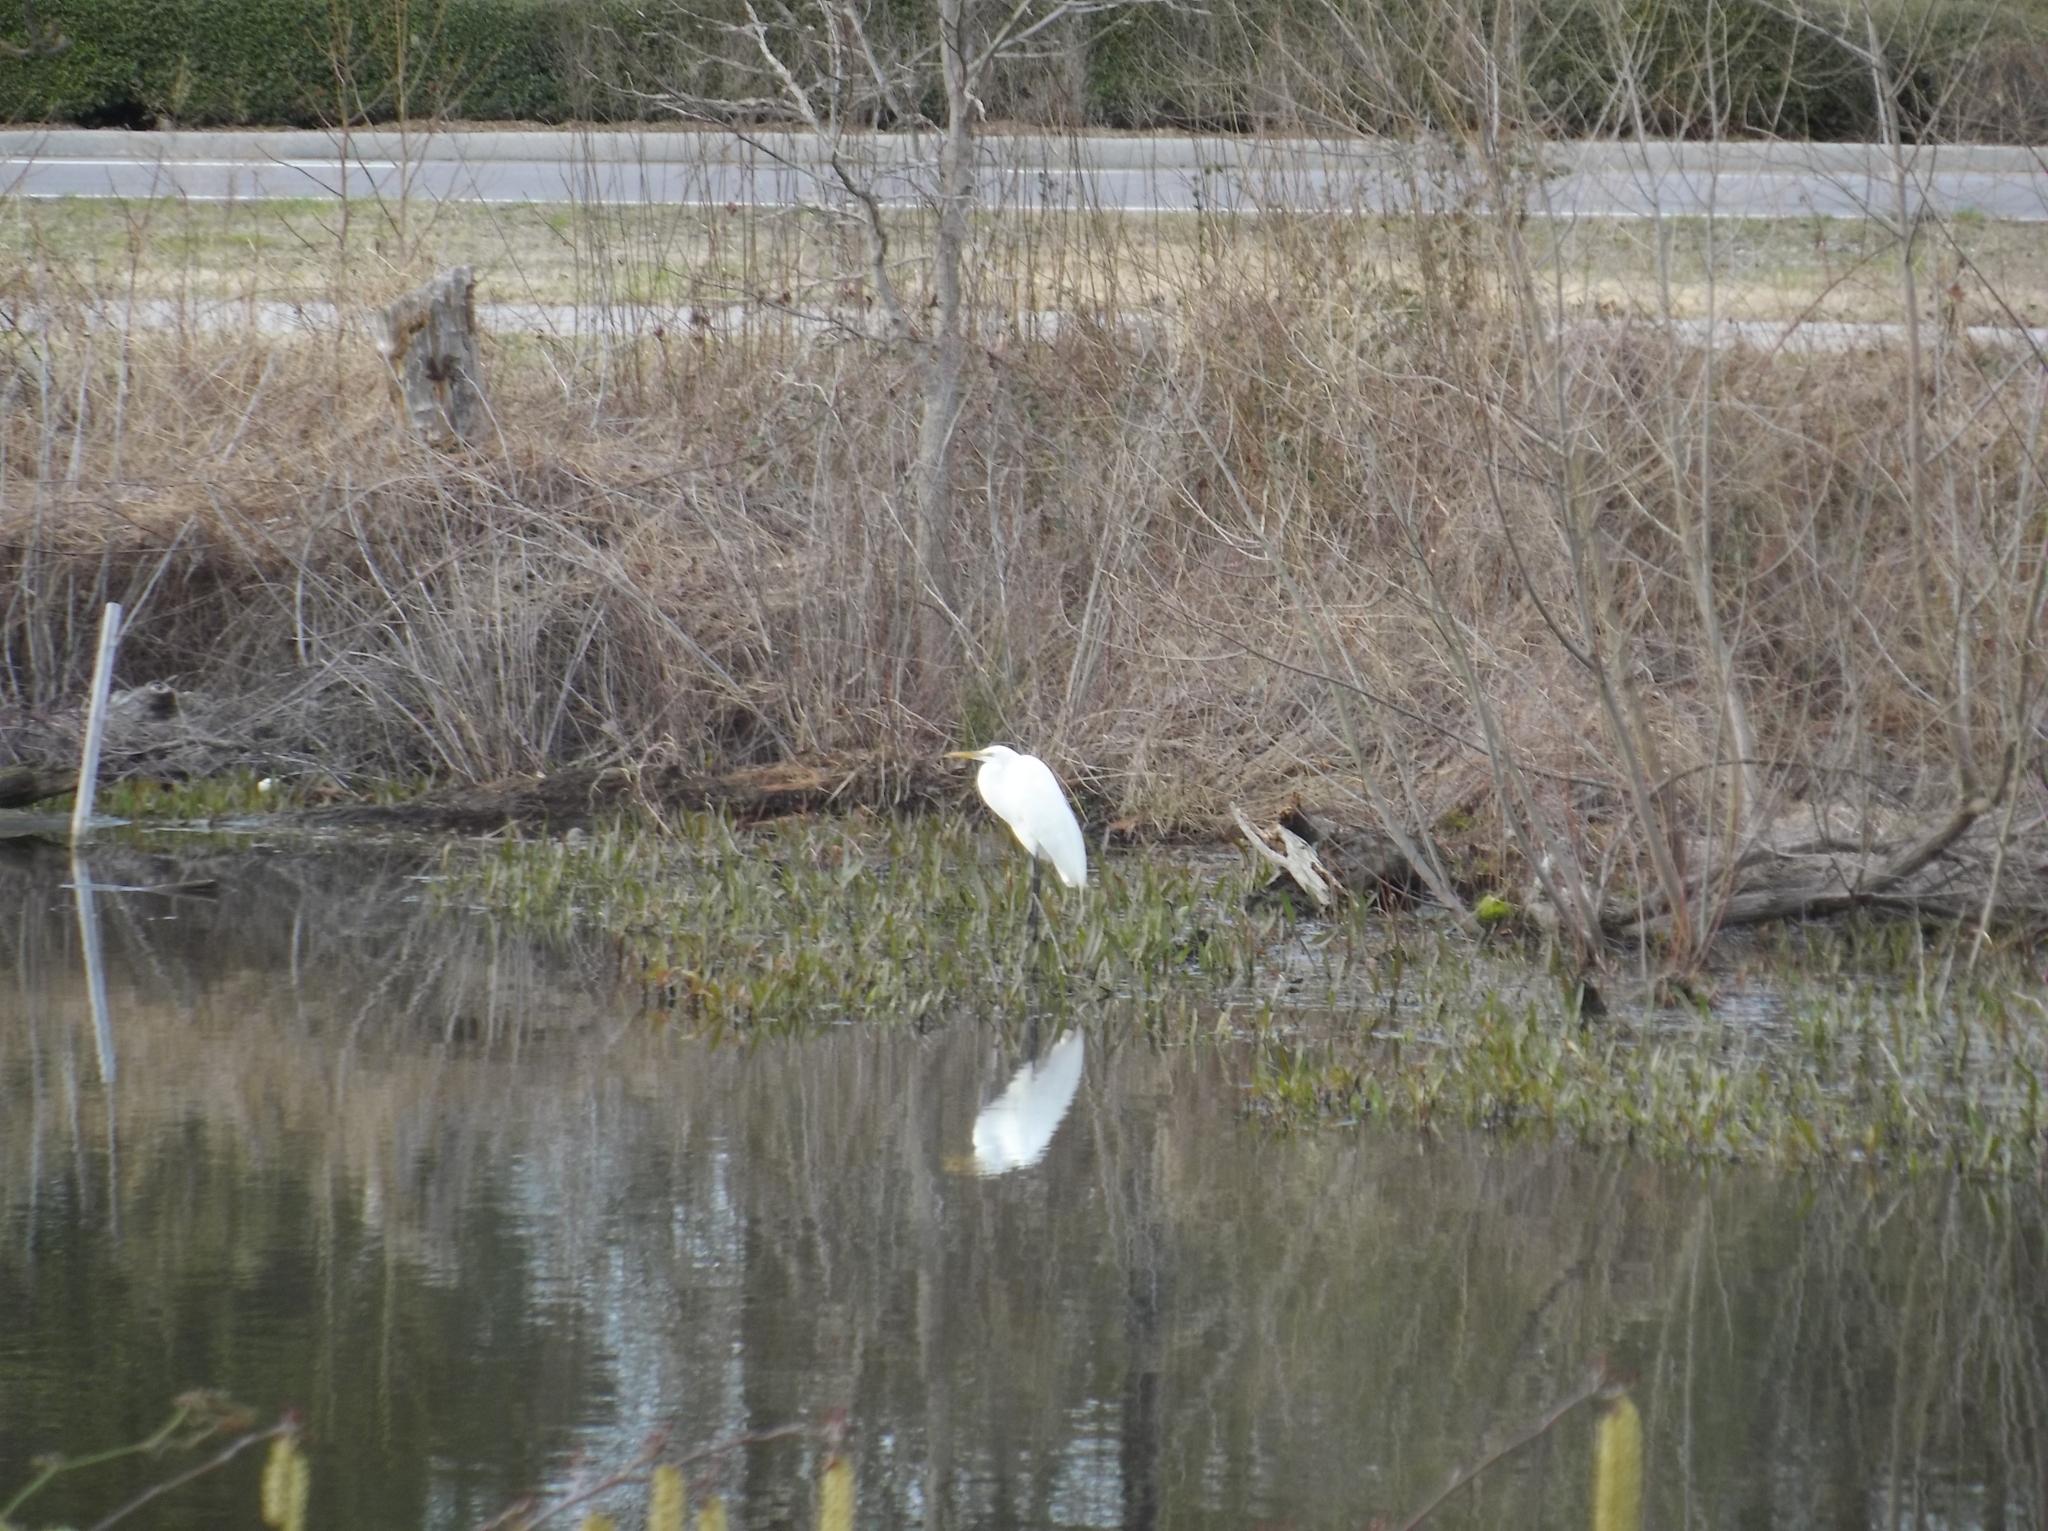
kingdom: Animalia
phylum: Chordata
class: Aves
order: Pelecaniformes
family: Ardeidae
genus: Ardea
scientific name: Ardea alba
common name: Great egret
